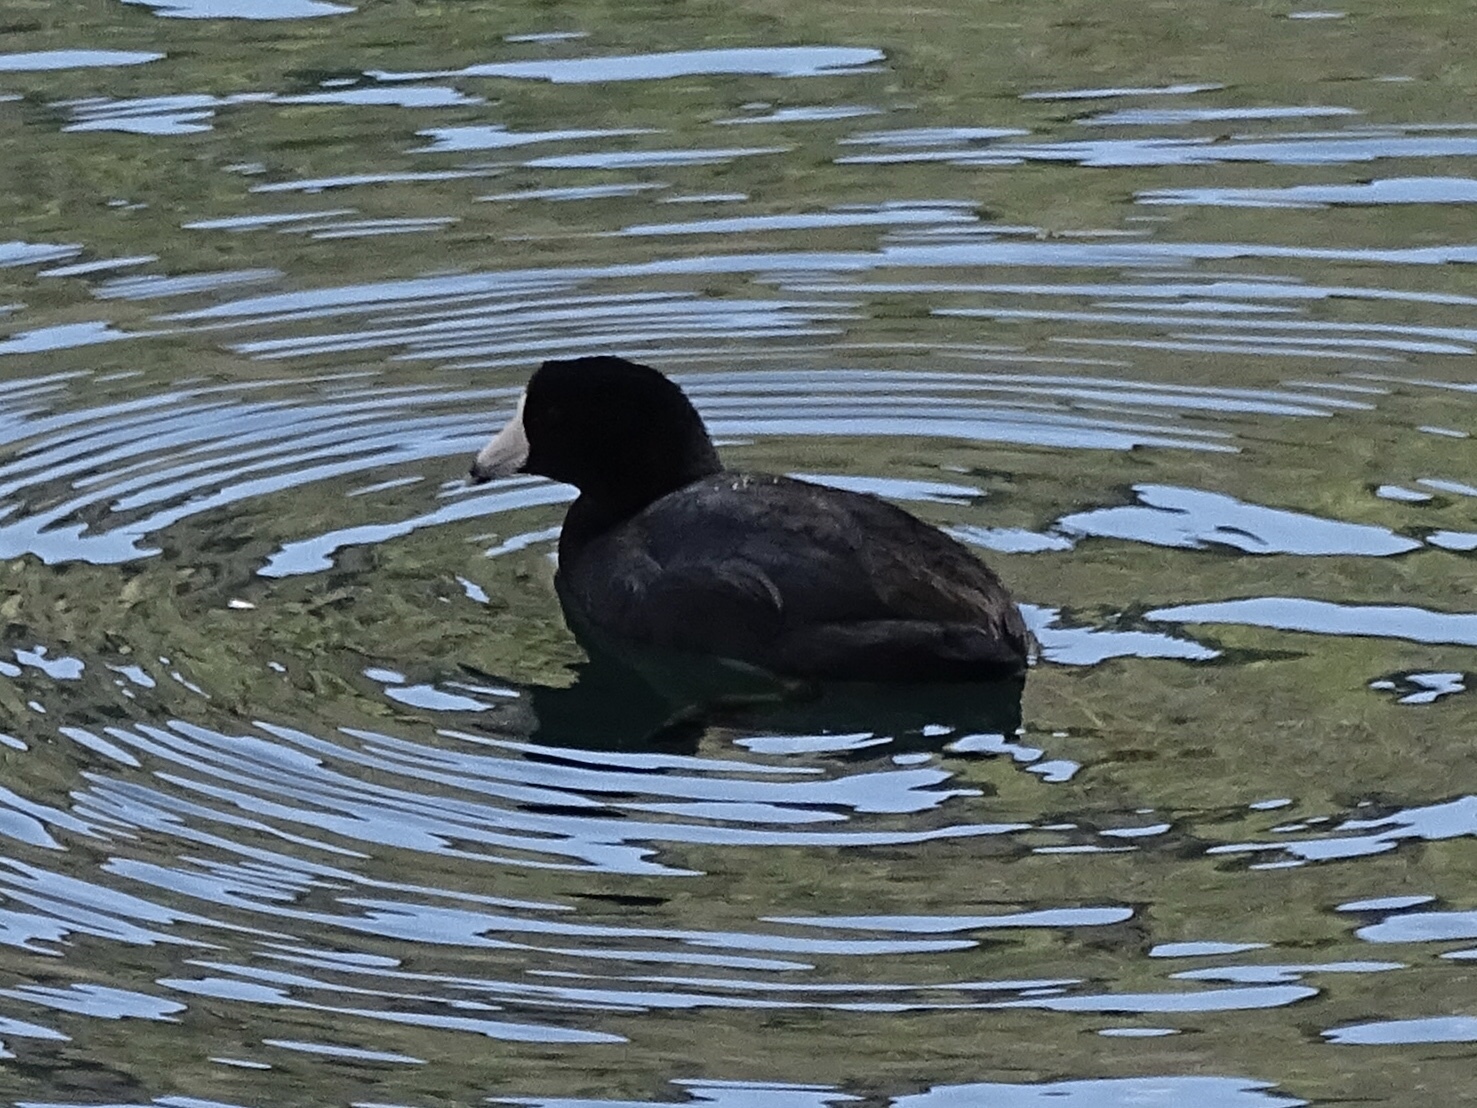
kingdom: Animalia
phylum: Chordata
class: Aves
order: Gruiformes
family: Rallidae
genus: Fulica
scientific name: Fulica americana
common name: American coot
